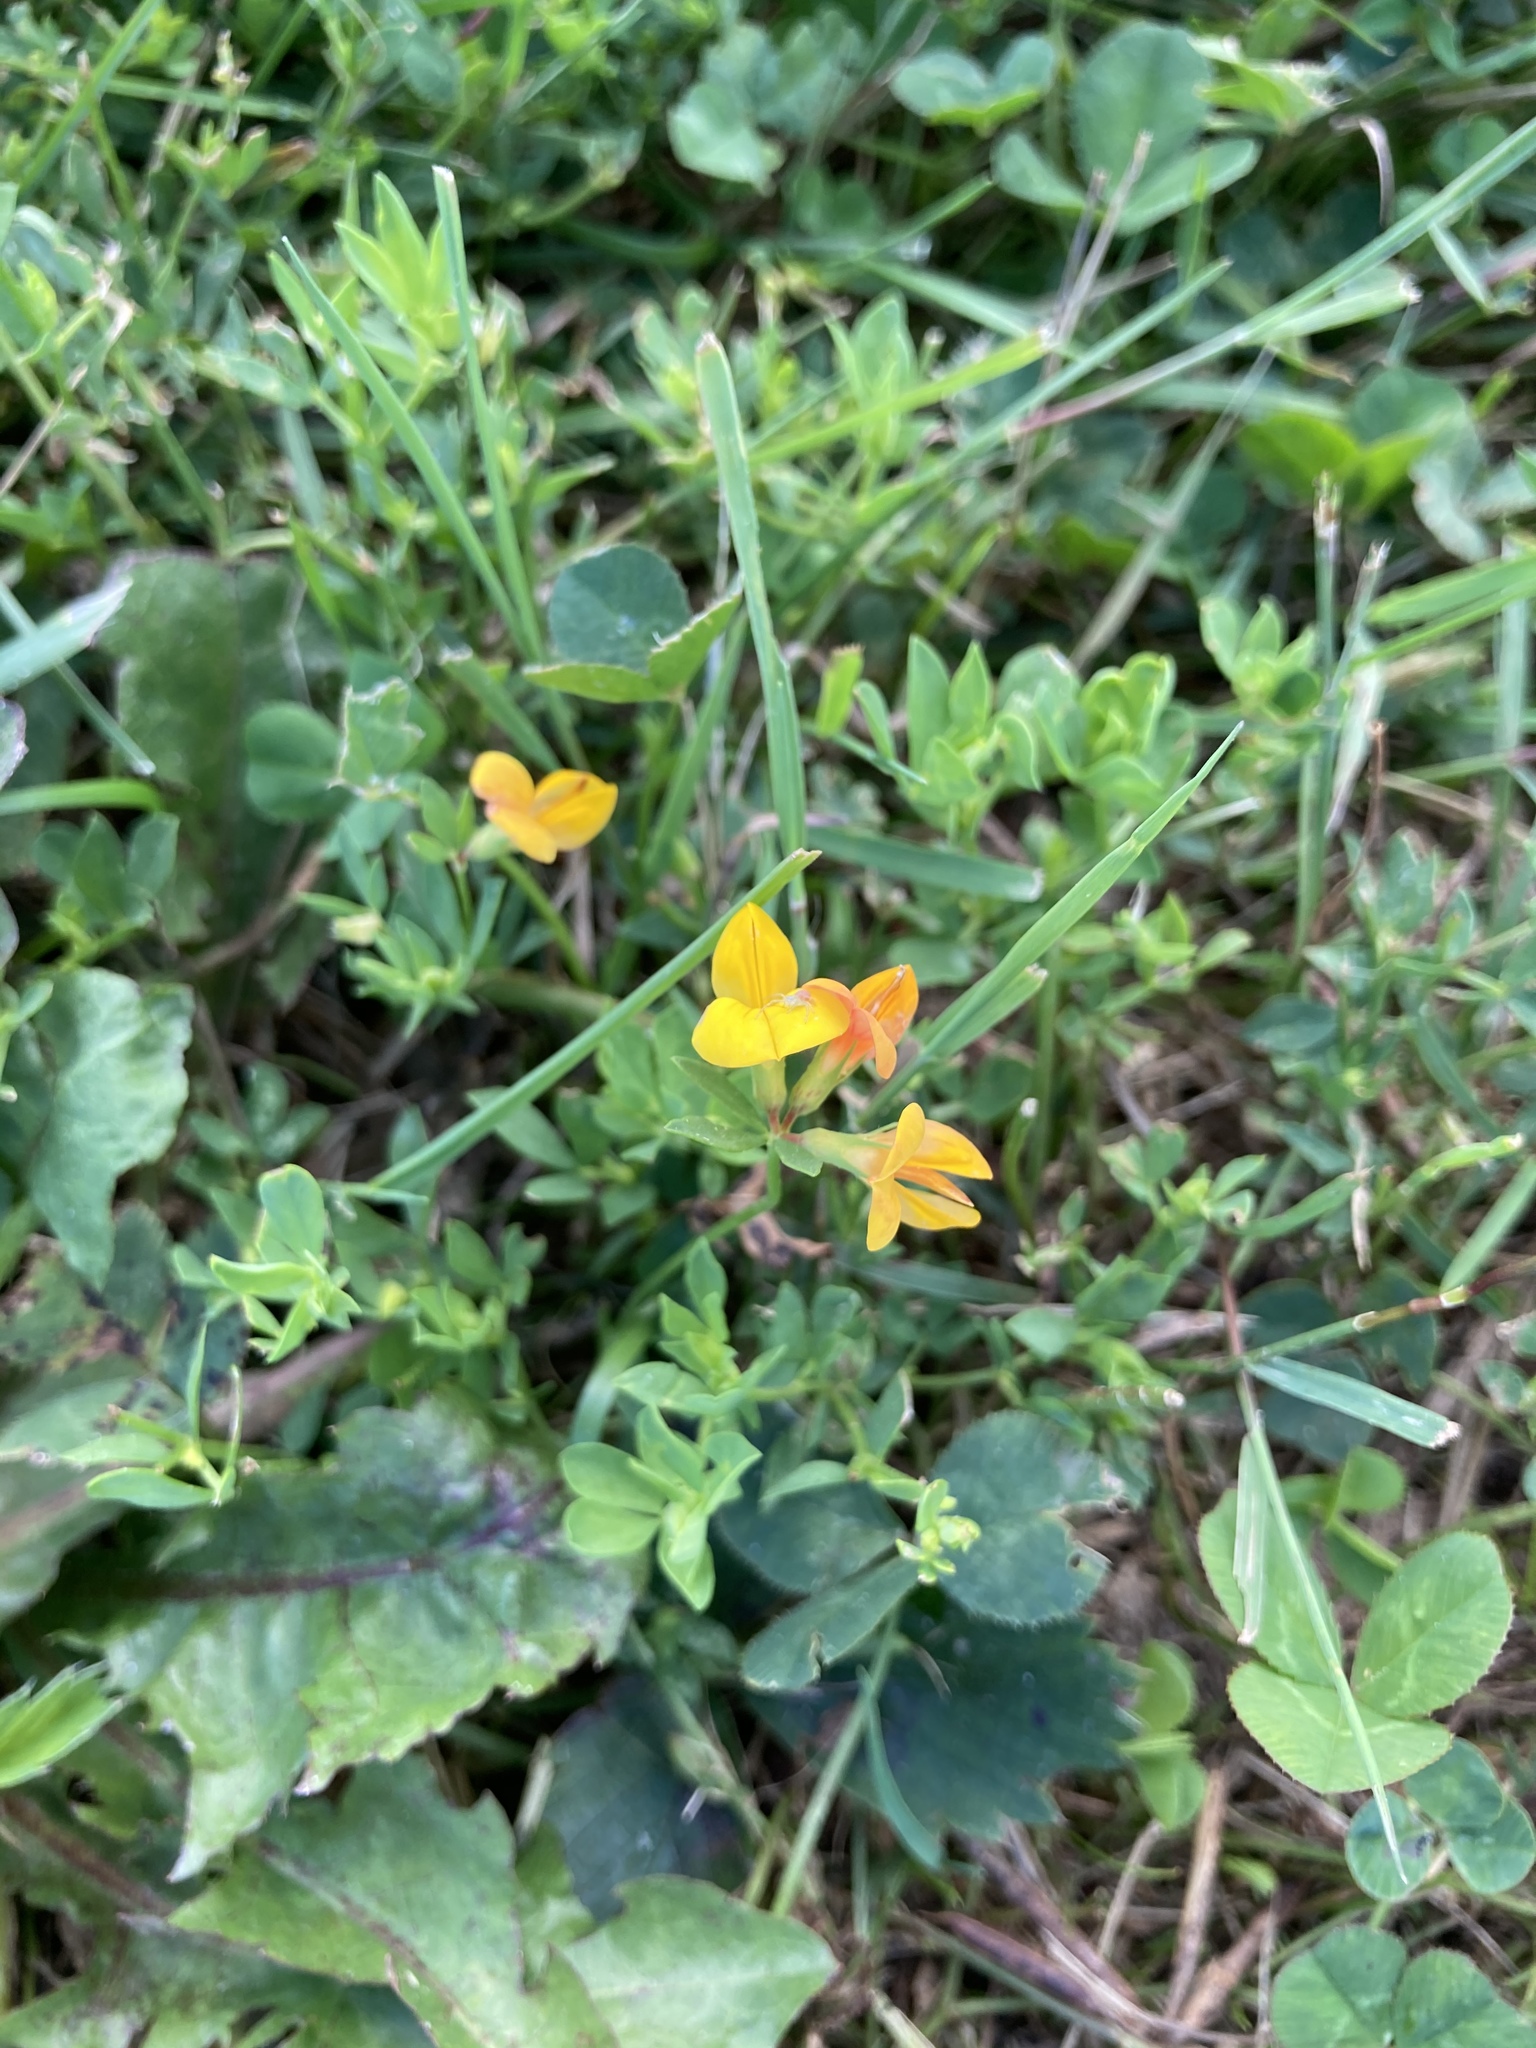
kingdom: Plantae
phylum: Tracheophyta
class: Magnoliopsida
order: Fabales
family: Fabaceae
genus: Lotus
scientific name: Lotus corniculatus
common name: Common bird's-foot-trefoil
